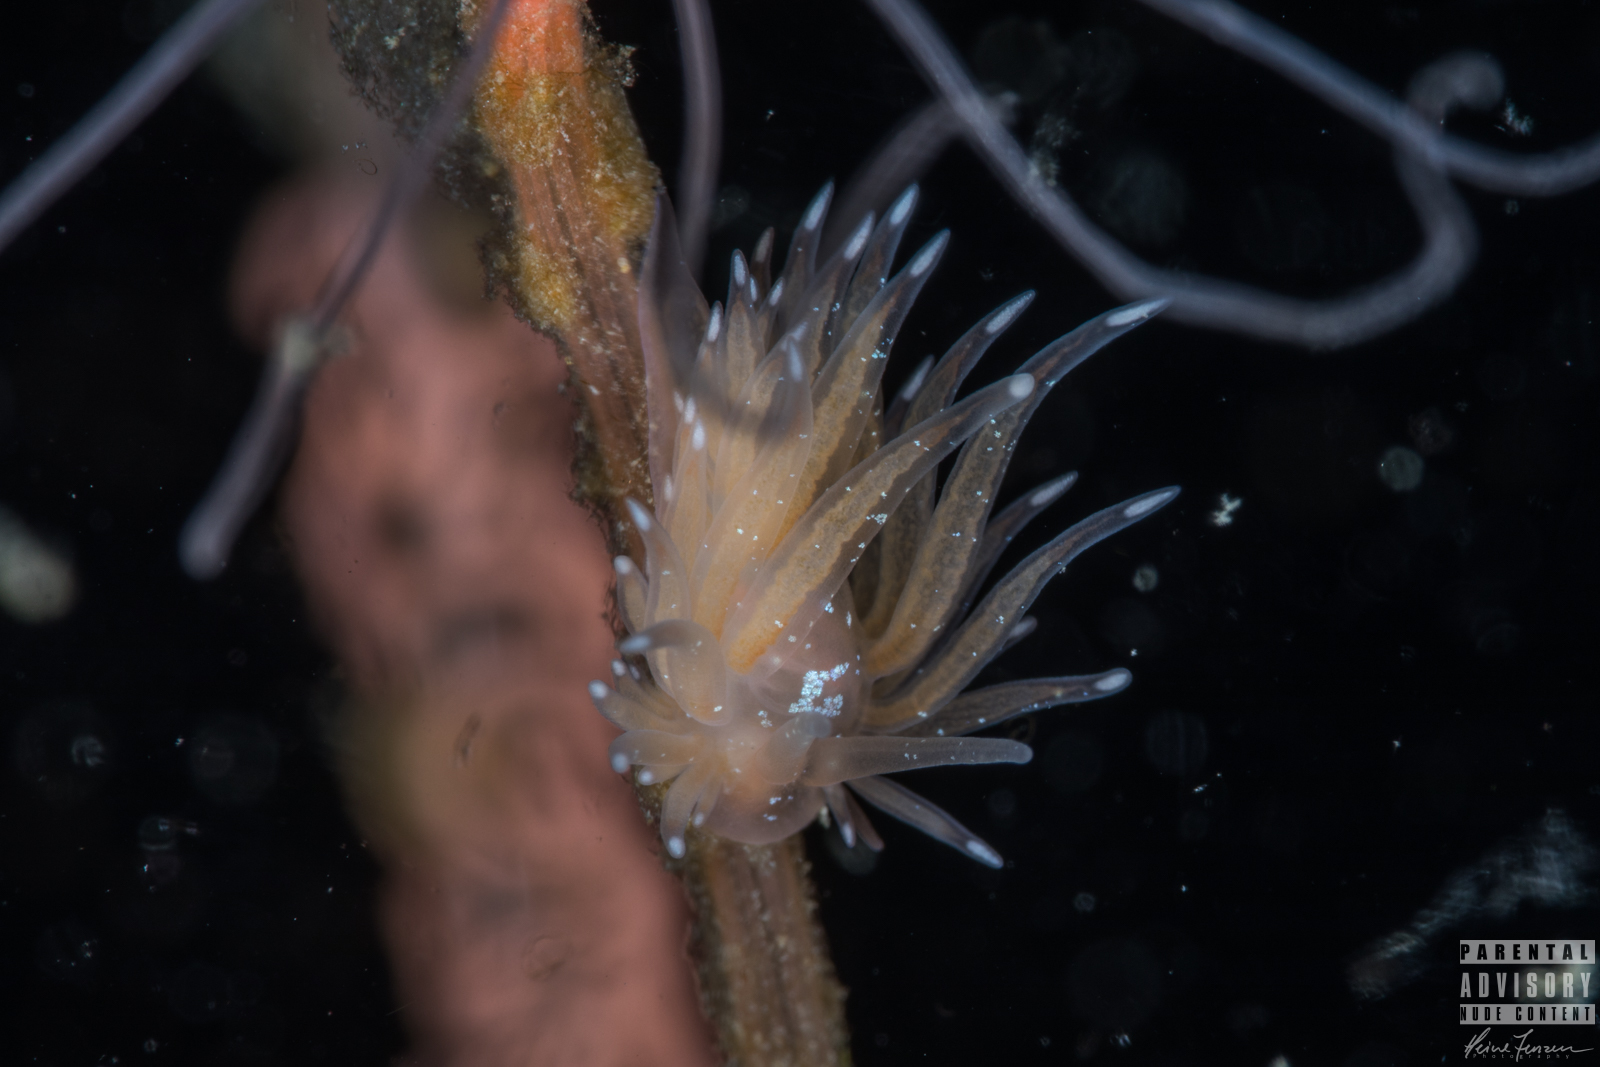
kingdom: Animalia
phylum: Mollusca
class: Gastropoda
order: Nudibranchia
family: Cumanotidae
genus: Cumanotus
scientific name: Cumanotus beaumonti
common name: Polyp aeolis
